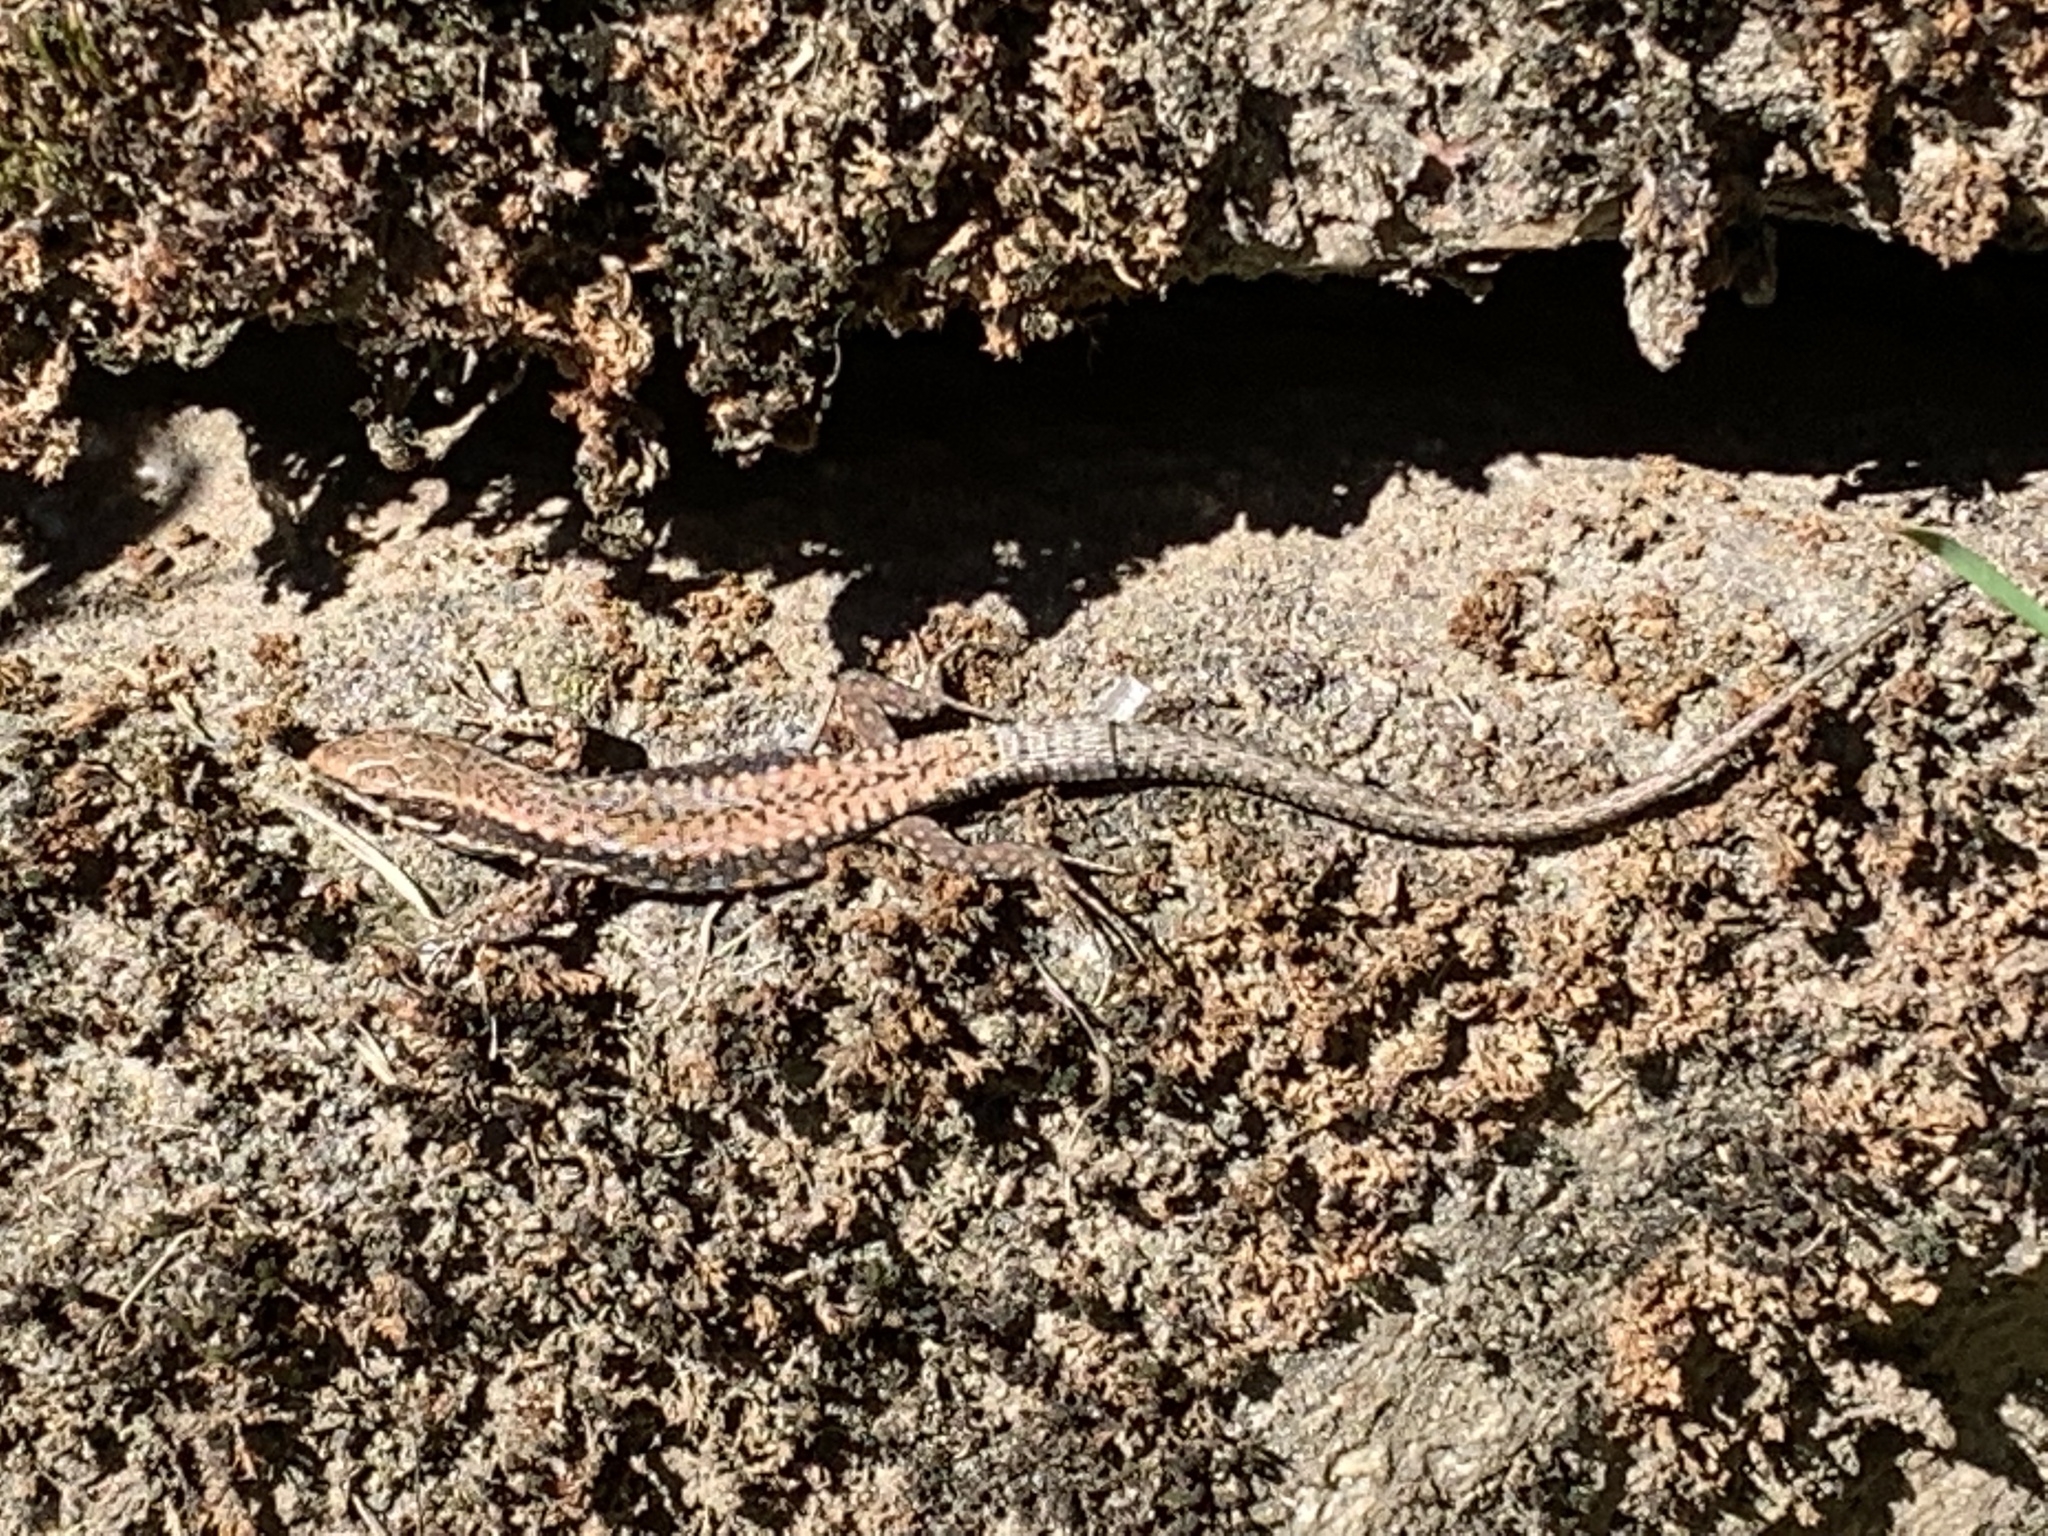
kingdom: Animalia
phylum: Chordata
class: Squamata
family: Lacertidae
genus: Podarcis
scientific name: Podarcis muralis
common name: Common wall lizard
